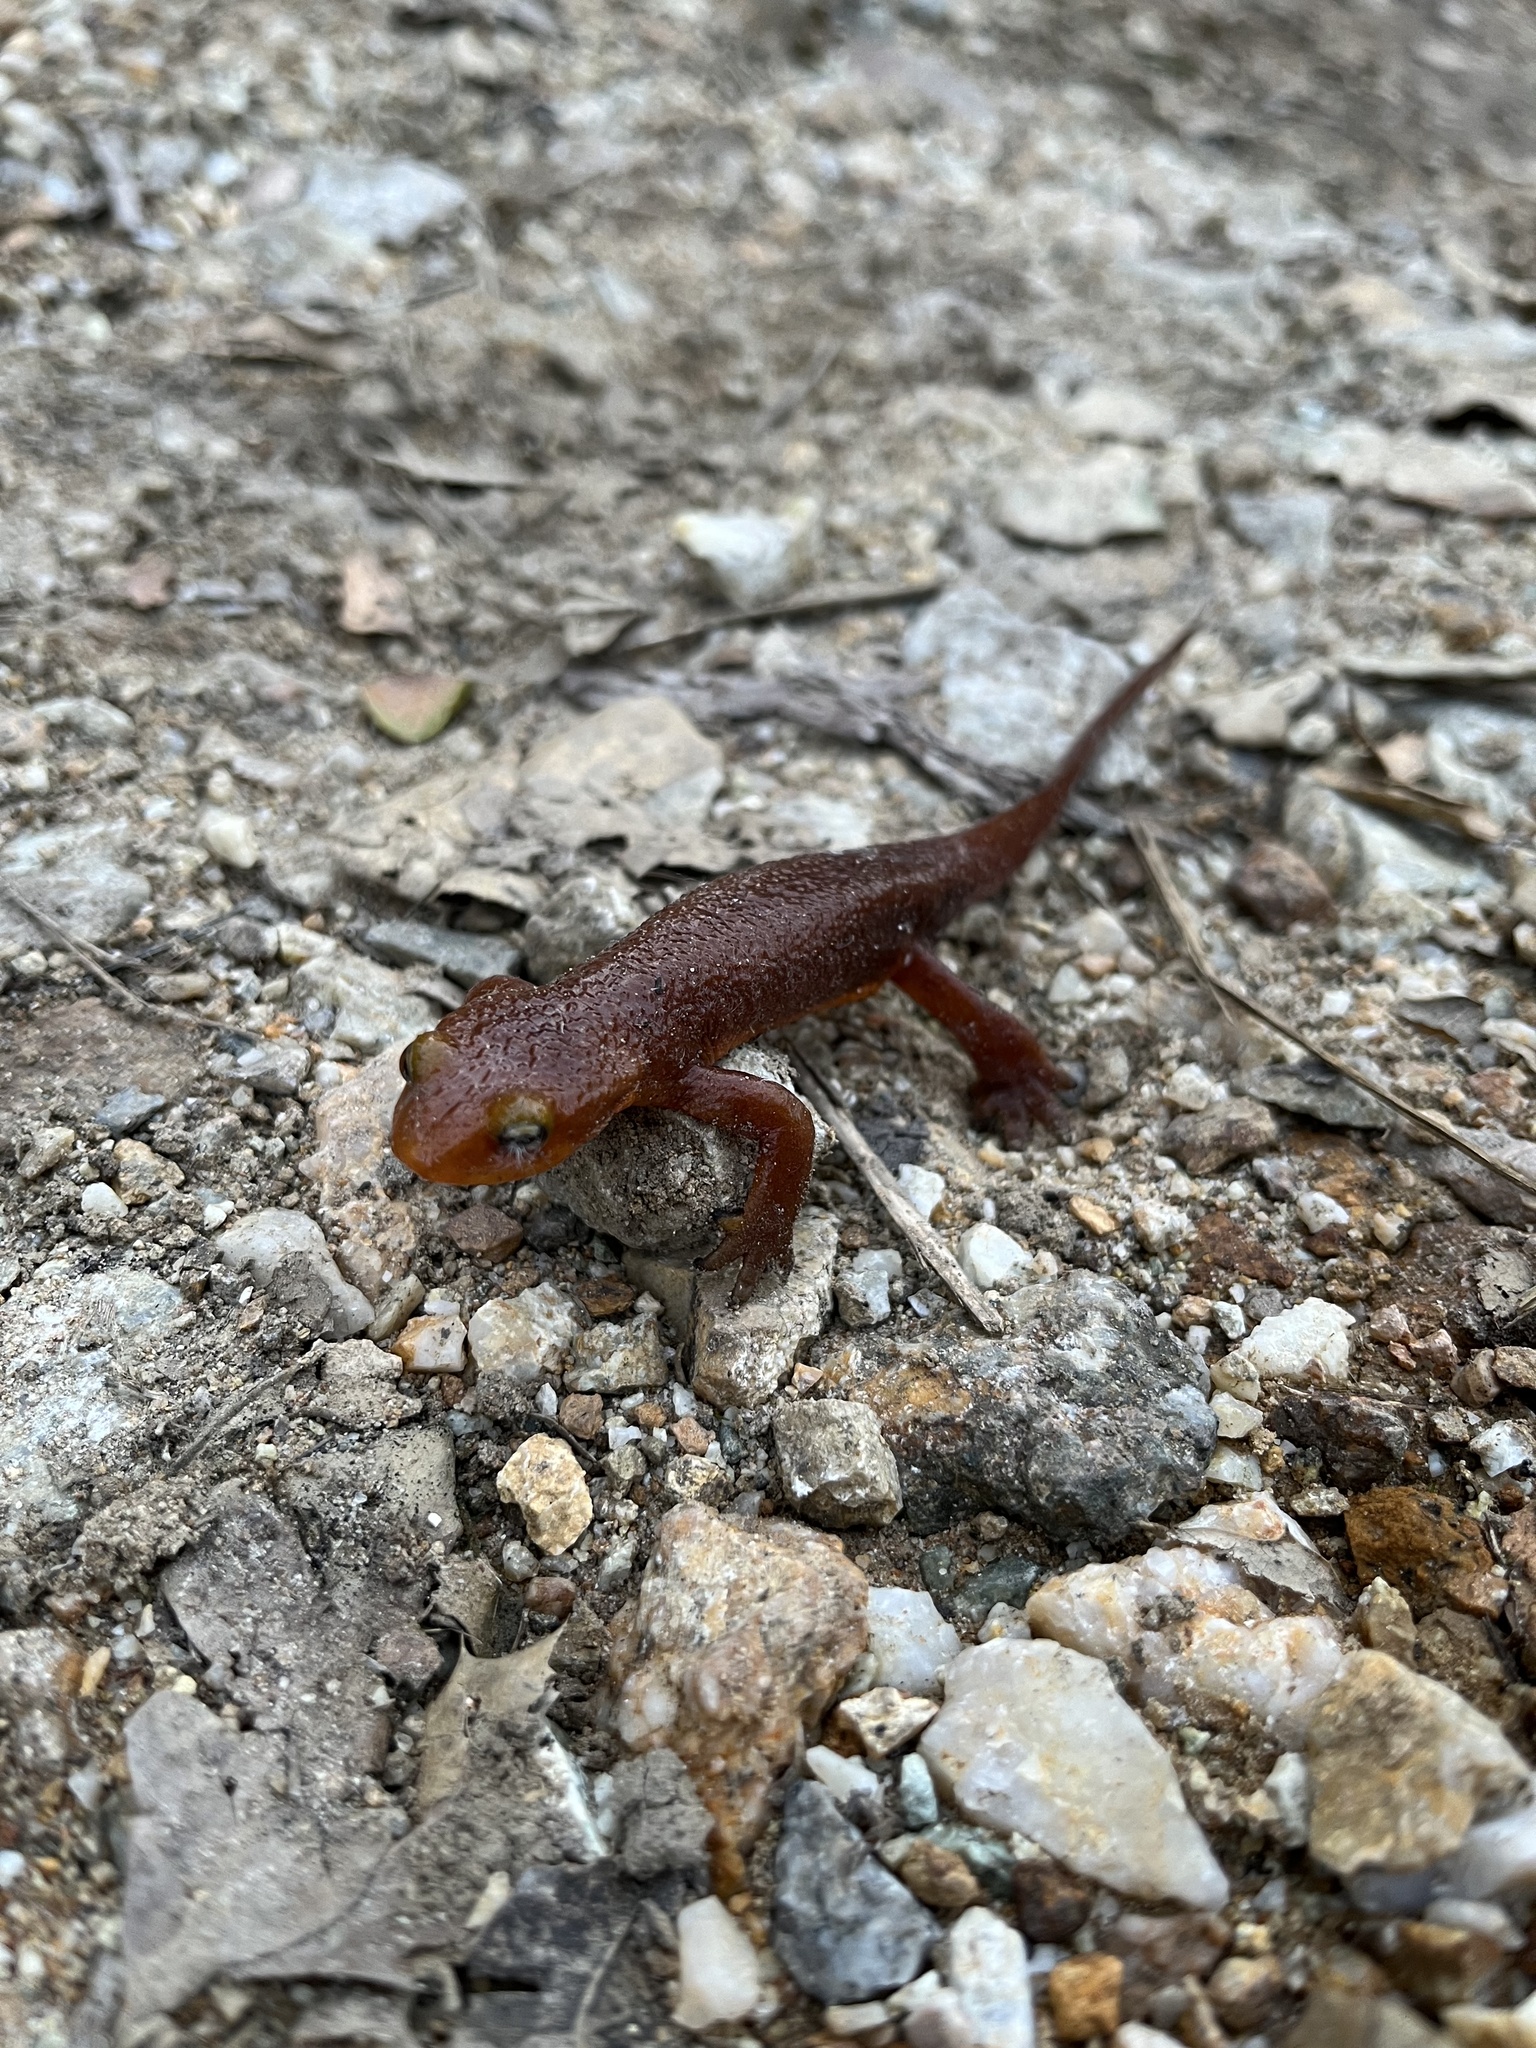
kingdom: Animalia
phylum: Chordata
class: Amphibia
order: Caudata
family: Salamandridae
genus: Taricha
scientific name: Taricha torosa
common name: California newt
